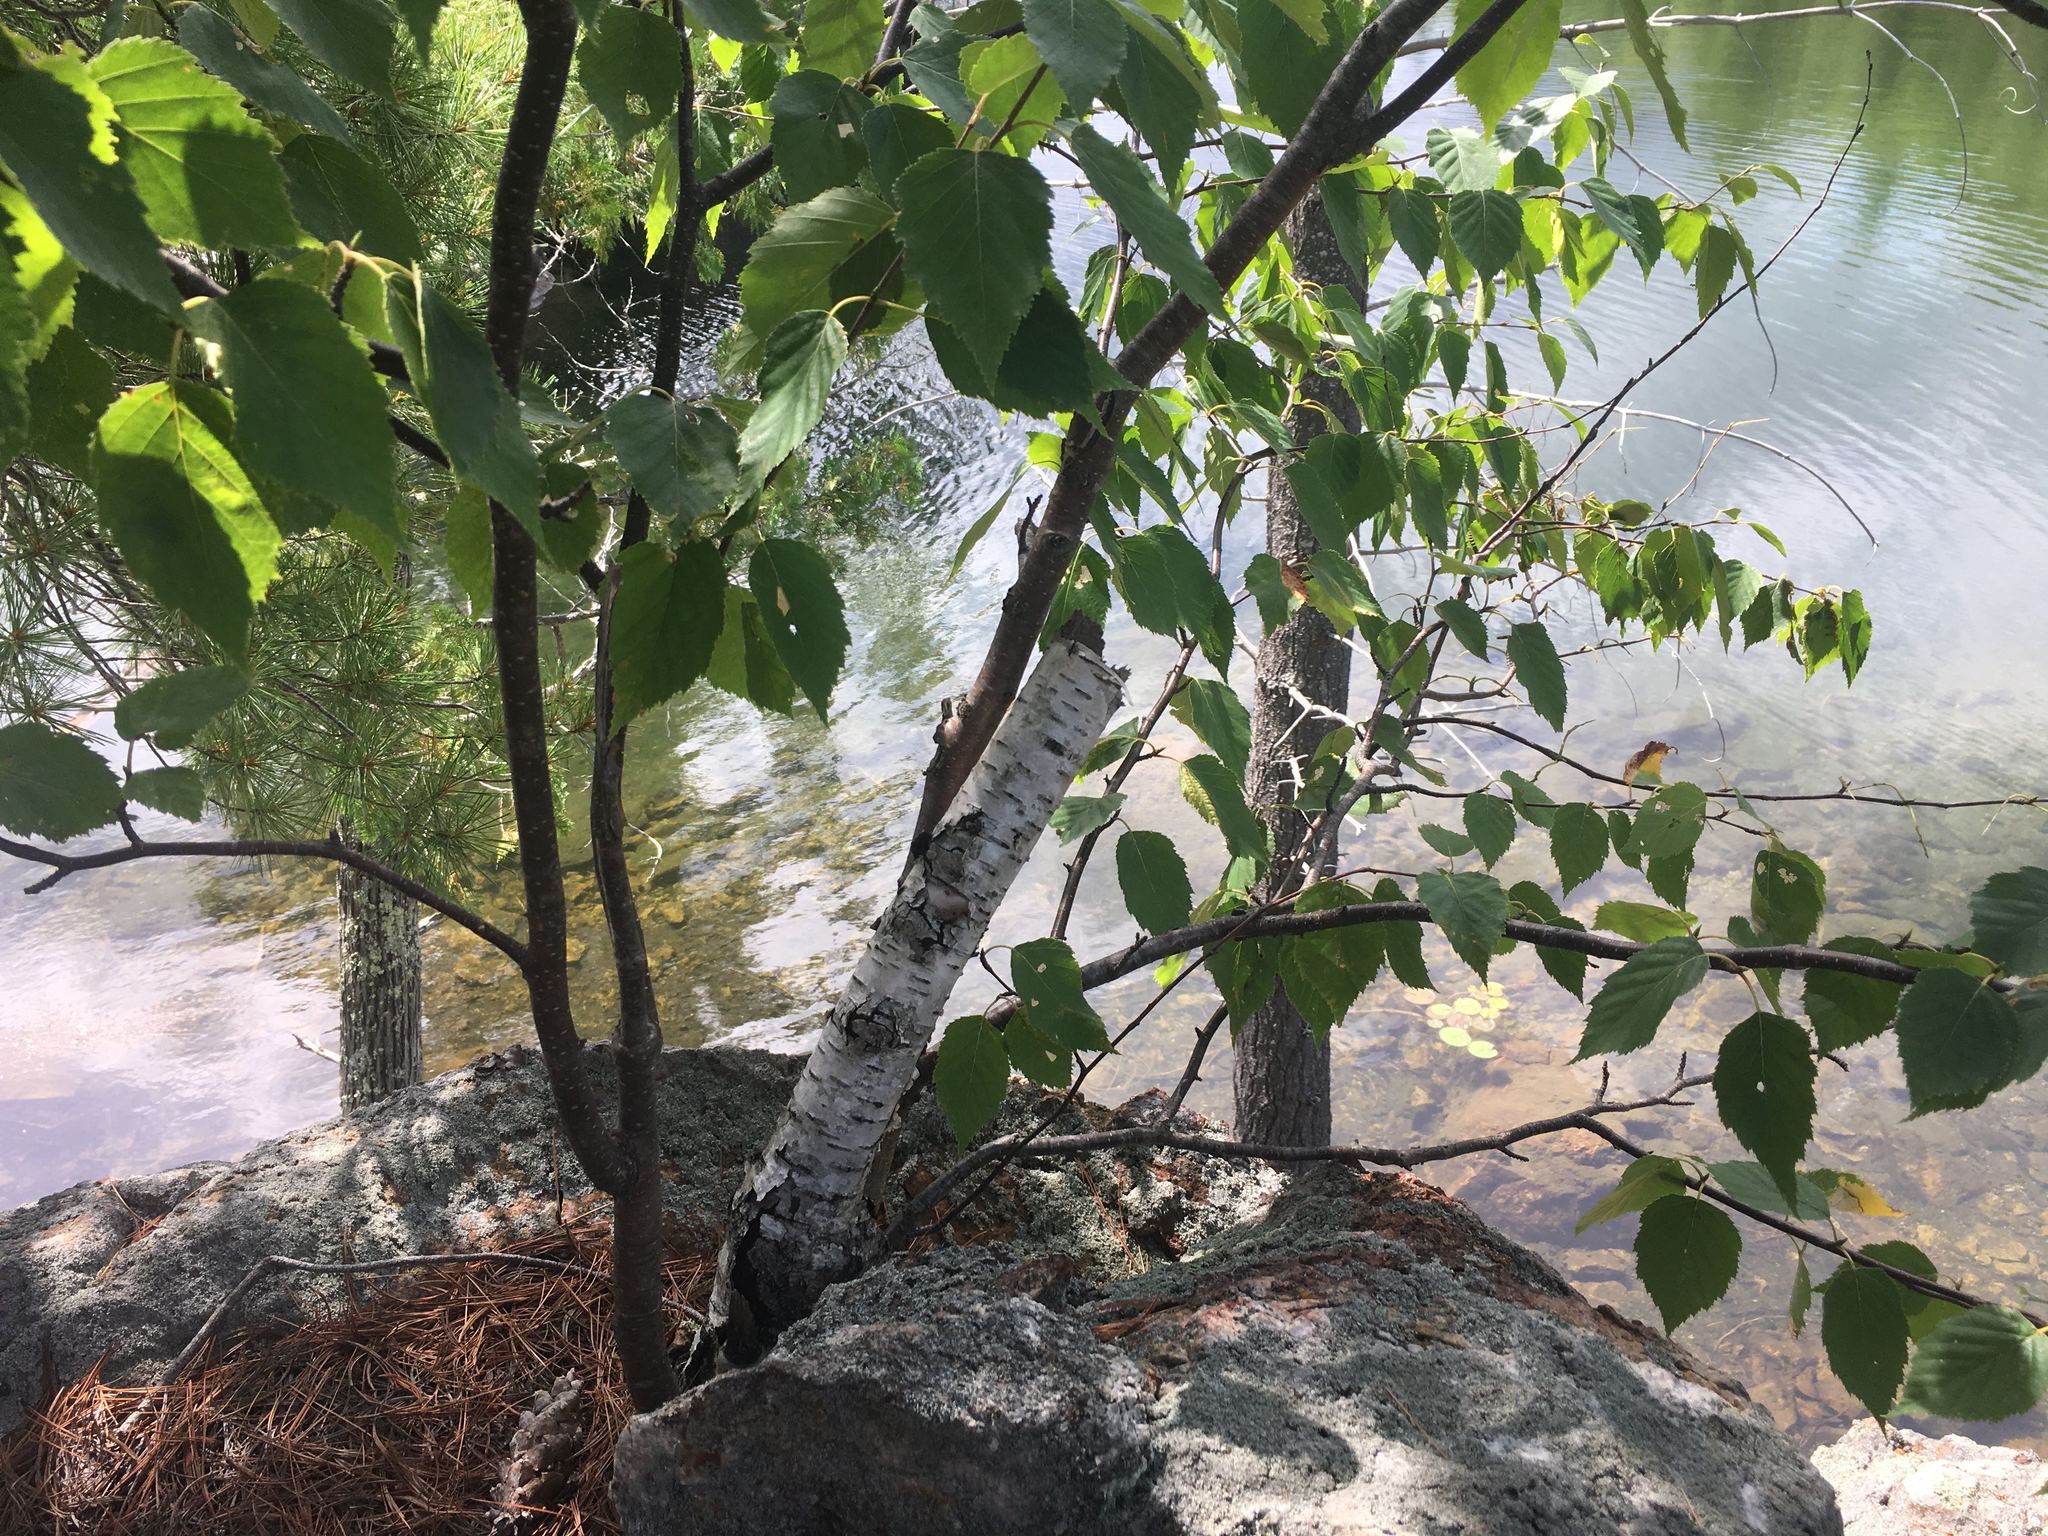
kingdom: Plantae
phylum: Tracheophyta
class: Magnoliopsida
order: Fagales
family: Betulaceae
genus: Betula
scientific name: Betula papyrifera
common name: Paper birch
